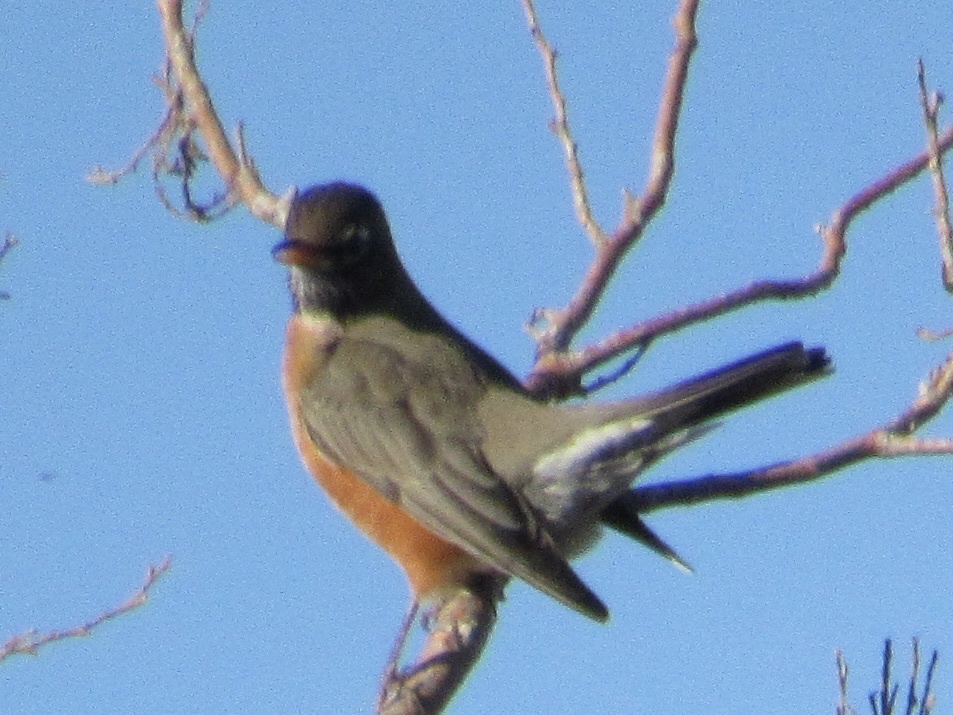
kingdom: Animalia
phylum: Chordata
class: Aves
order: Passeriformes
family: Turdidae
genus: Turdus
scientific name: Turdus migratorius
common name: American robin
